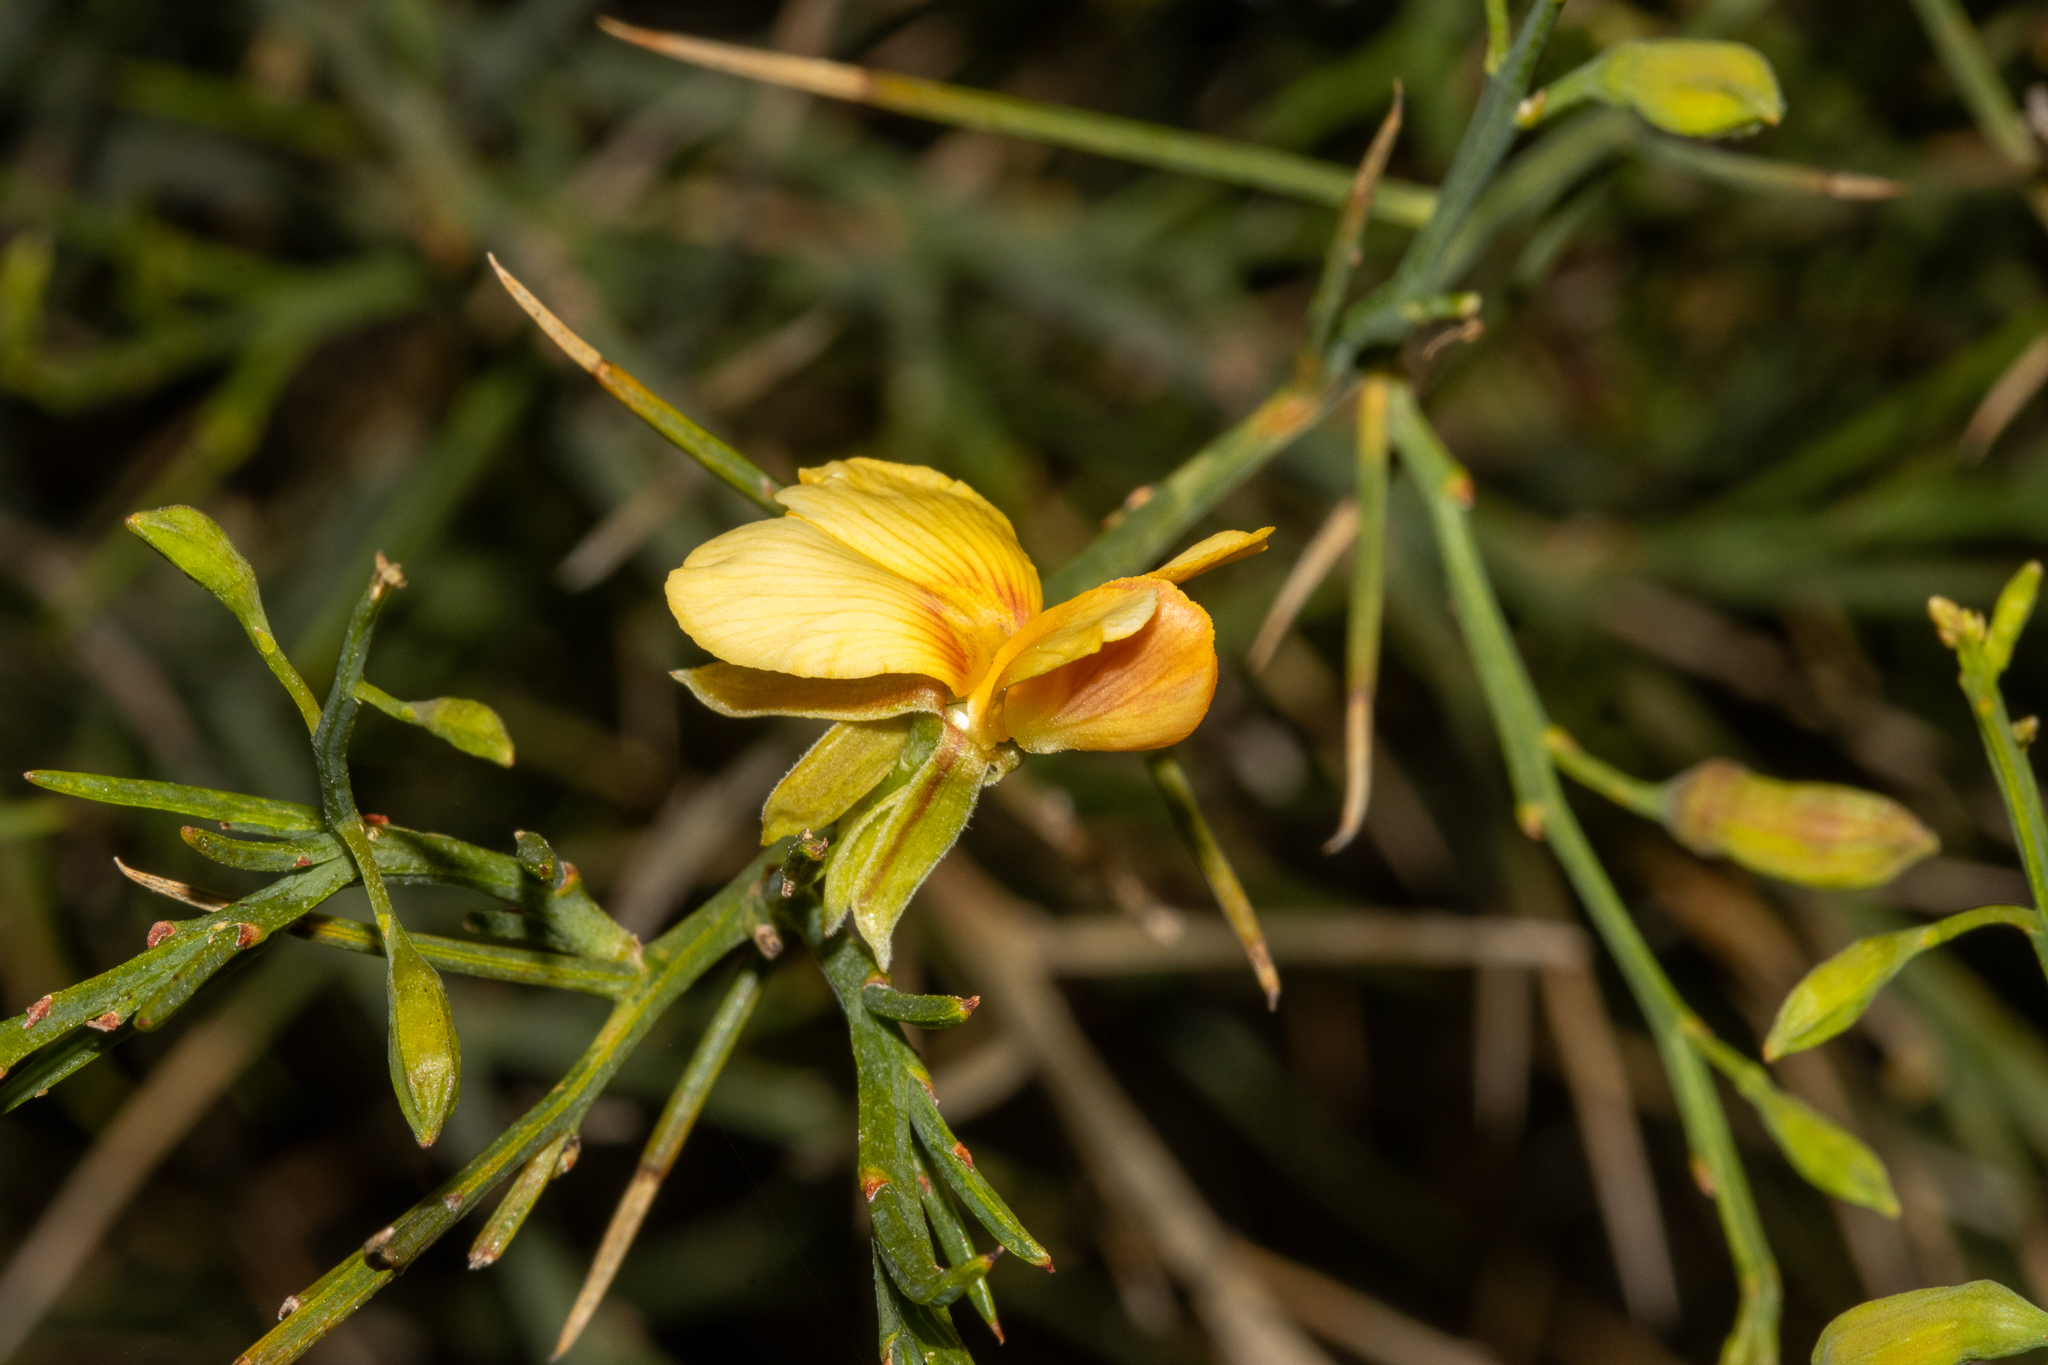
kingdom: Plantae
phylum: Tracheophyta
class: Magnoliopsida
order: Fabales
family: Fabaceae
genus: Jacksonia
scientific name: Jacksonia sternbergiana
